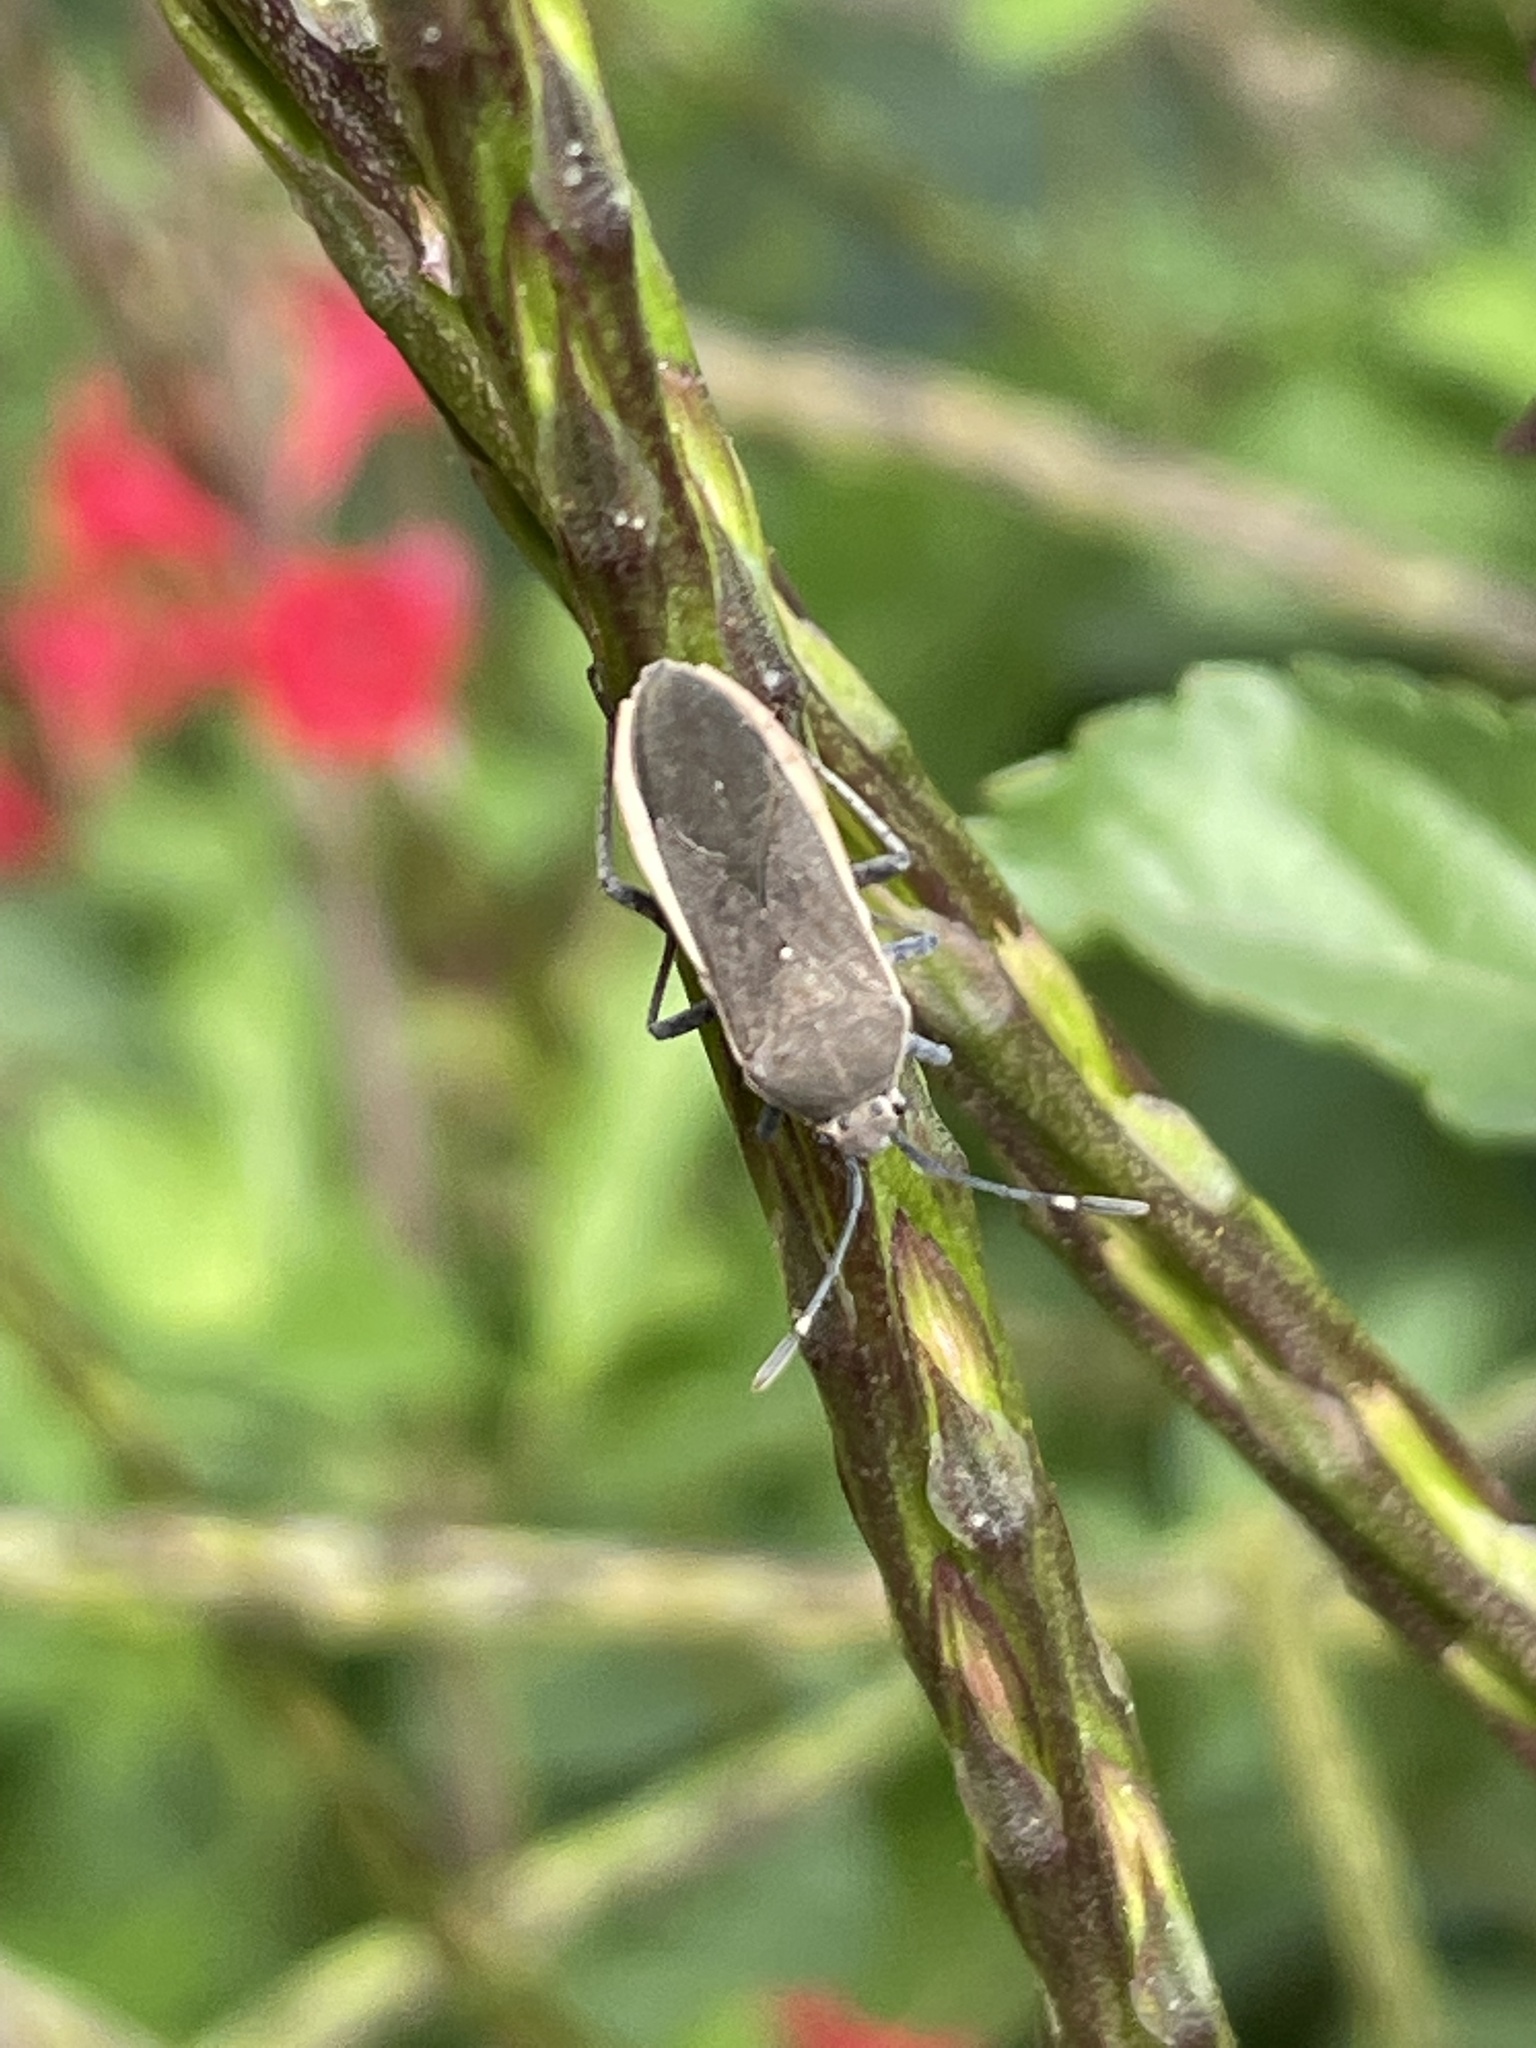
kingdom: Animalia
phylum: Arthropoda
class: Insecta
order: Hemiptera
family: Coreidae
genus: Catorhintha
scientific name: Catorhintha texana
